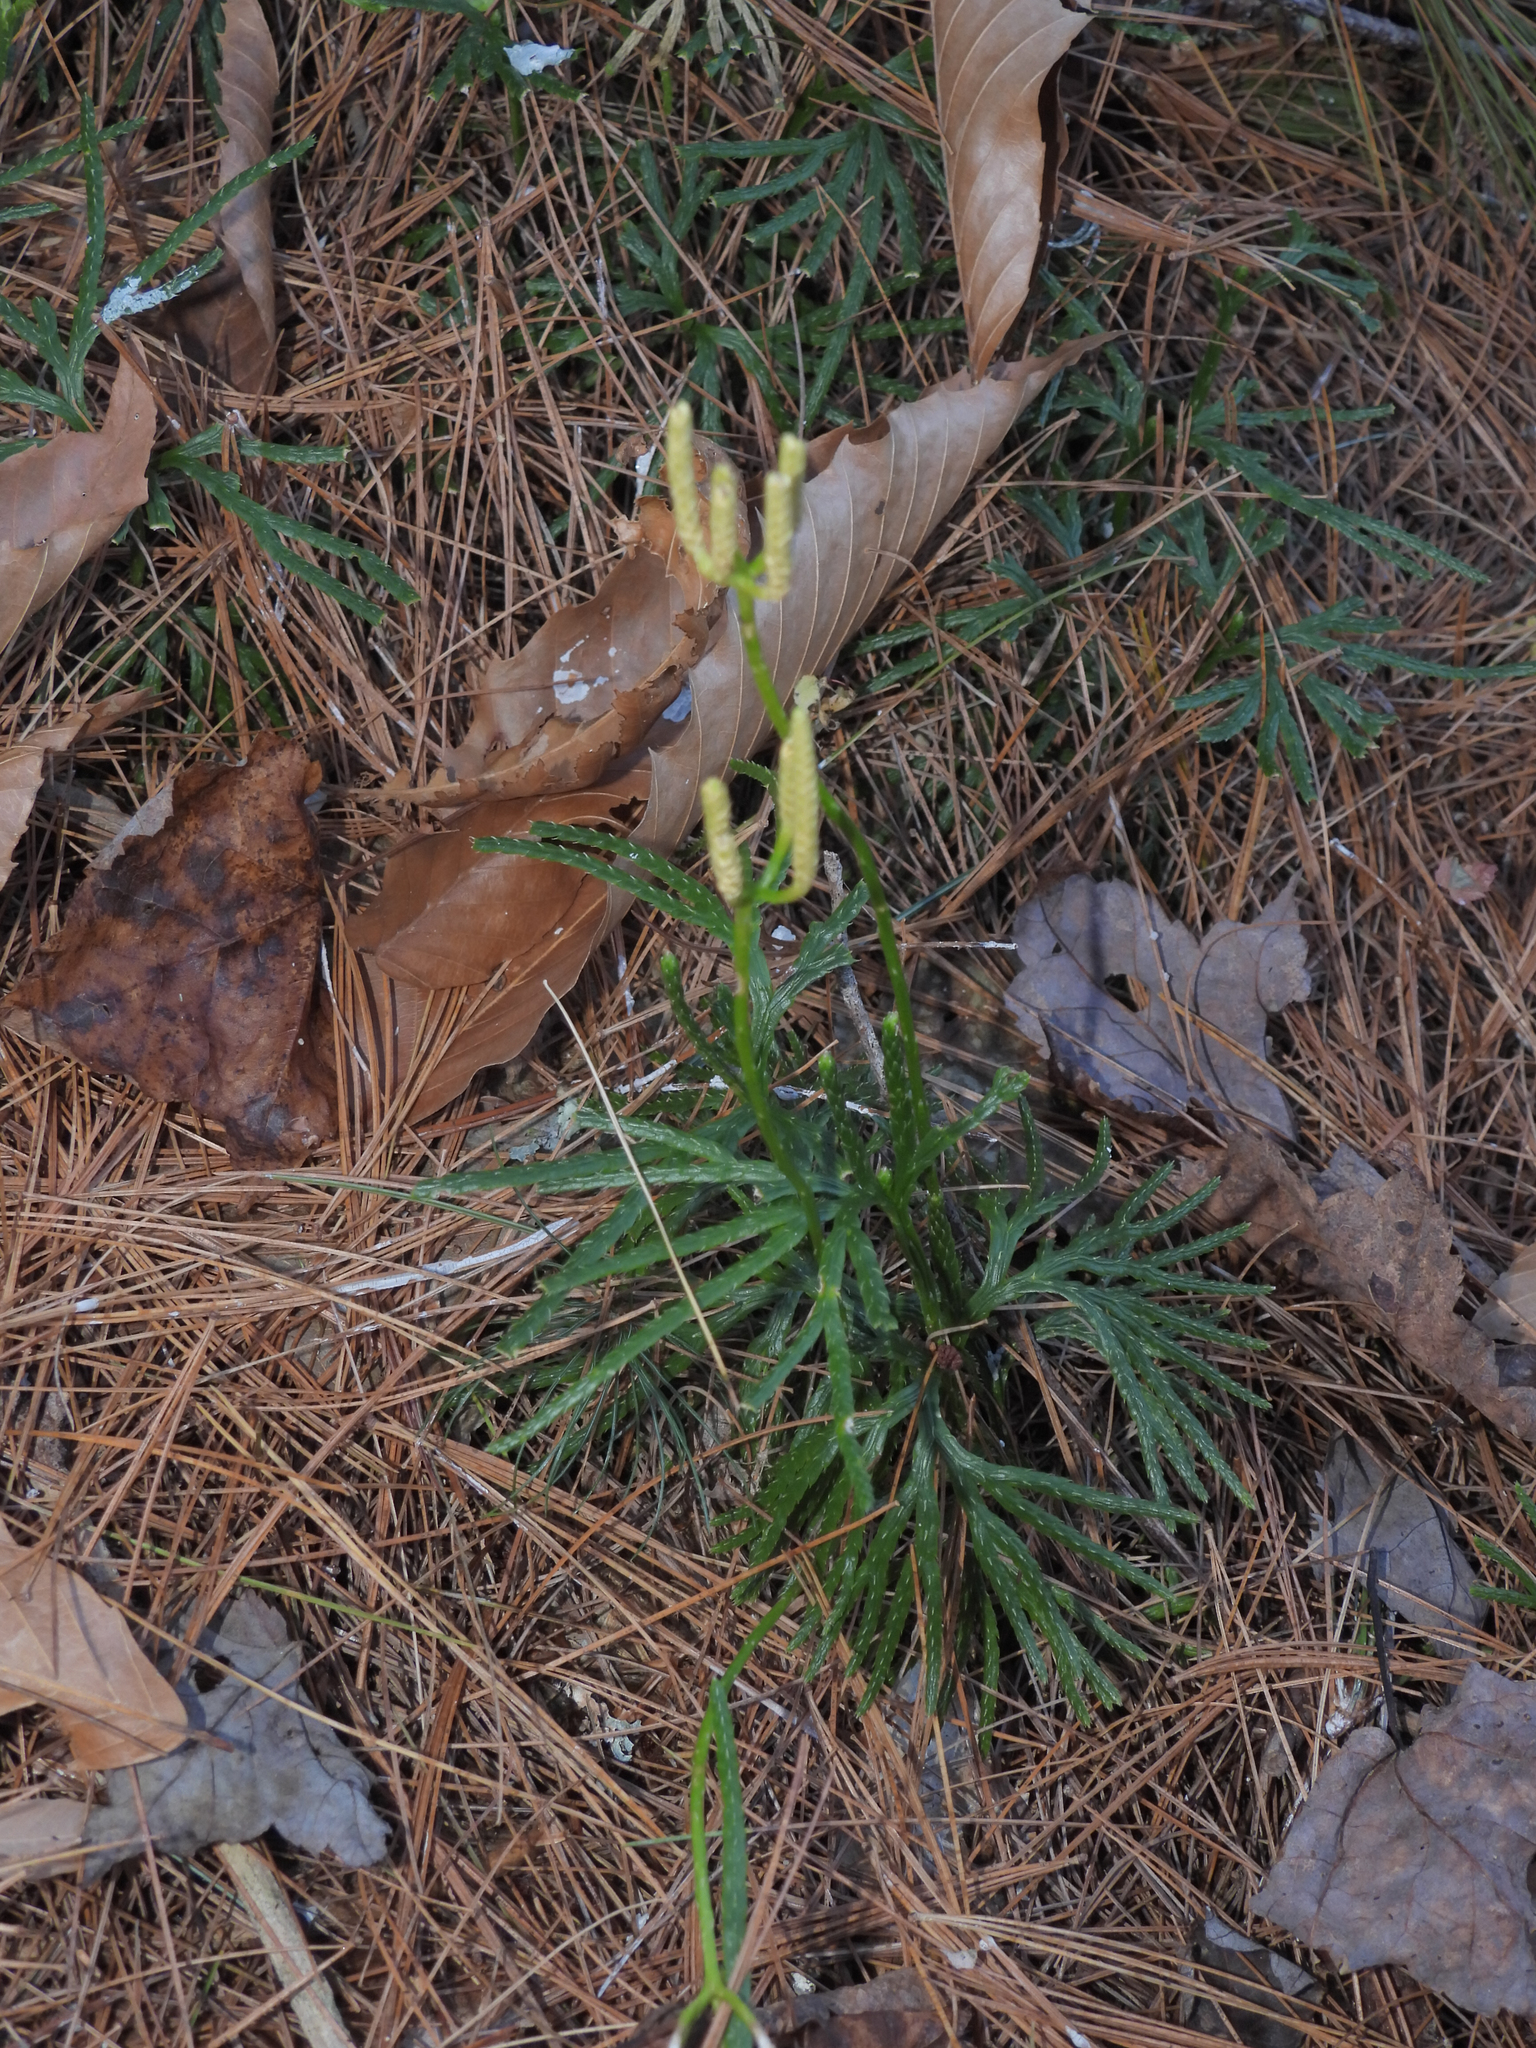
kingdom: Plantae
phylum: Tracheophyta
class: Lycopodiopsida
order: Lycopodiales
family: Lycopodiaceae
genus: Diphasiastrum
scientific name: Diphasiastrum digitatum
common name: Southern running-pine
